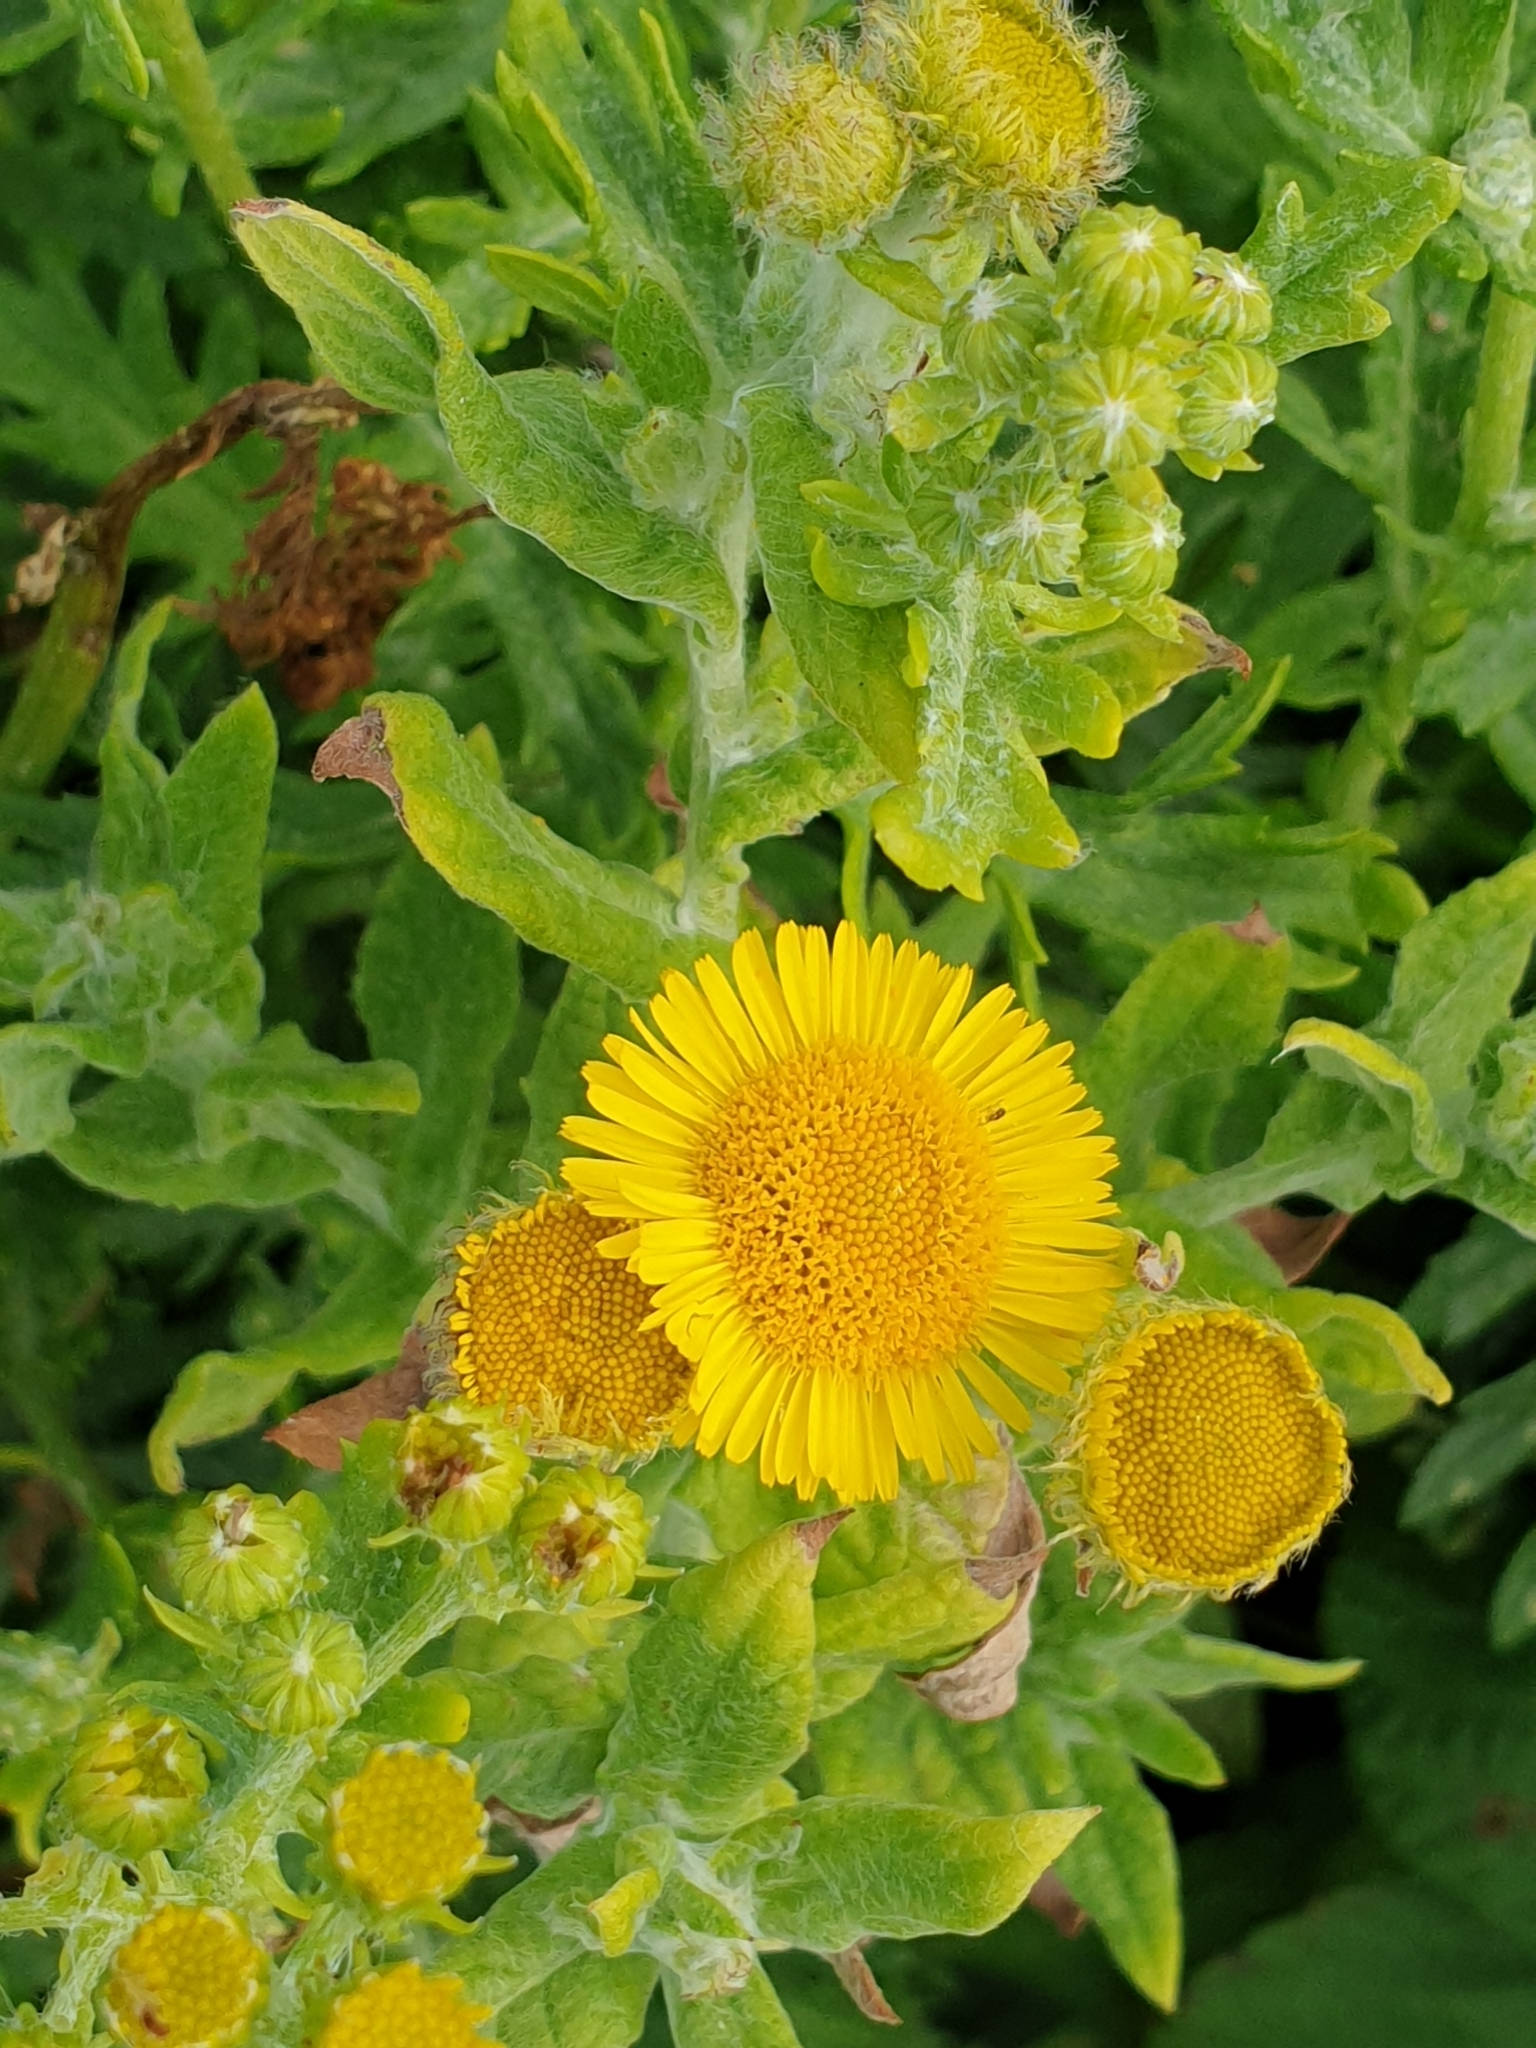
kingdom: Plantae
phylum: Tracheophyta
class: Magnoliopsida
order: Asterales
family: Asteraceae
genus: Pulicaria
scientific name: Pulicaria dysenterica
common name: Common fleabane
